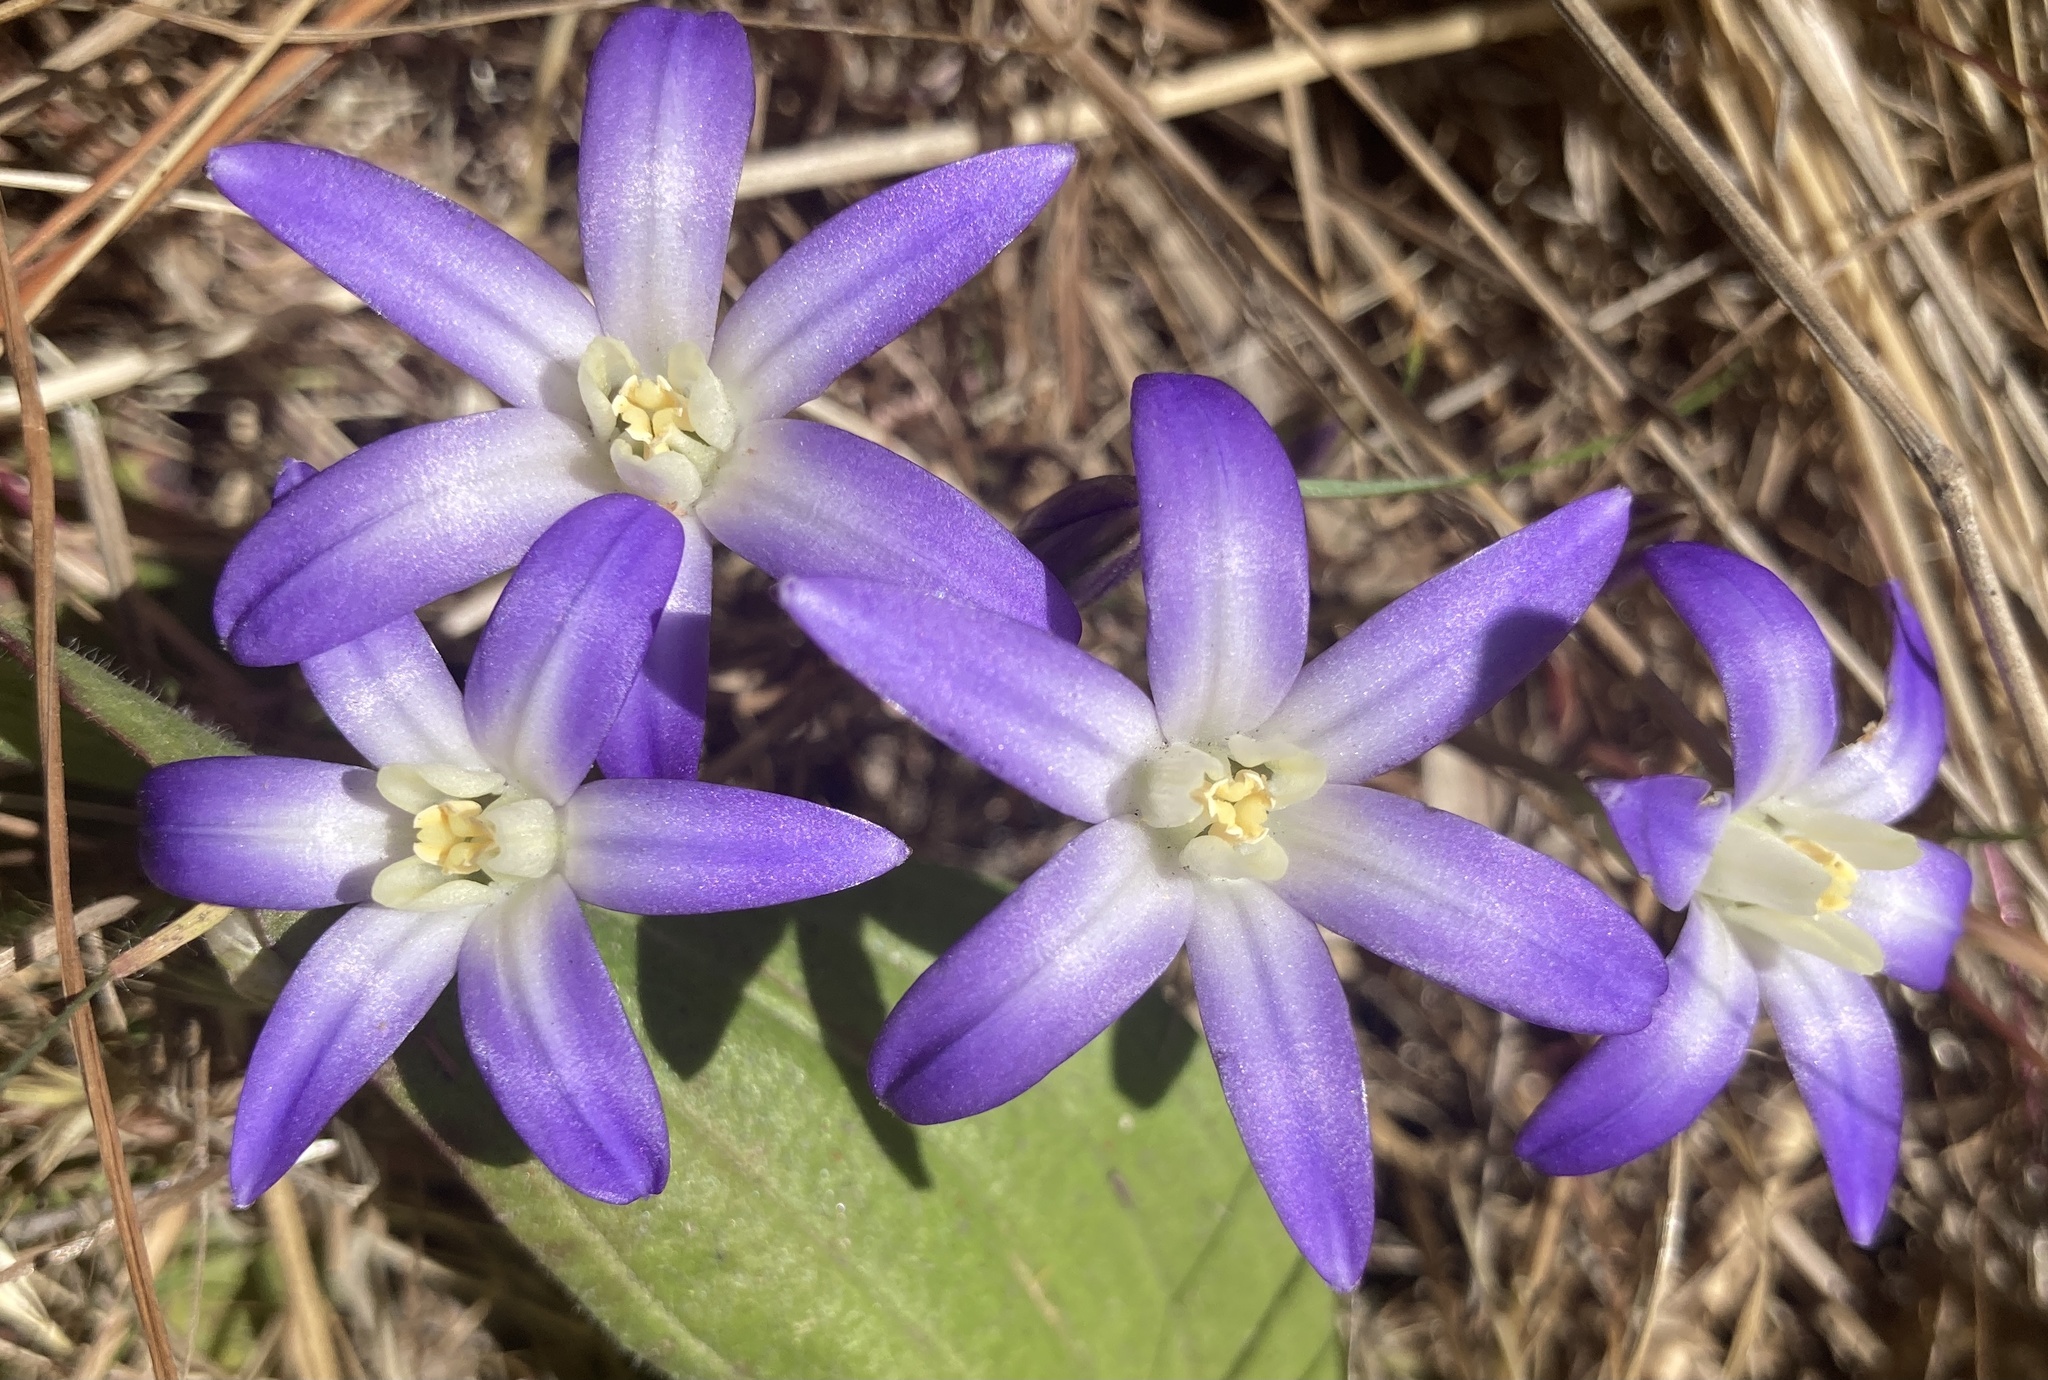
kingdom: Plantae
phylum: Tracheophyta
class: Liliopsida
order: Asparagales
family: Asparagaceae
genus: Brodiaea
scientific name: Brodiaea terrestris
